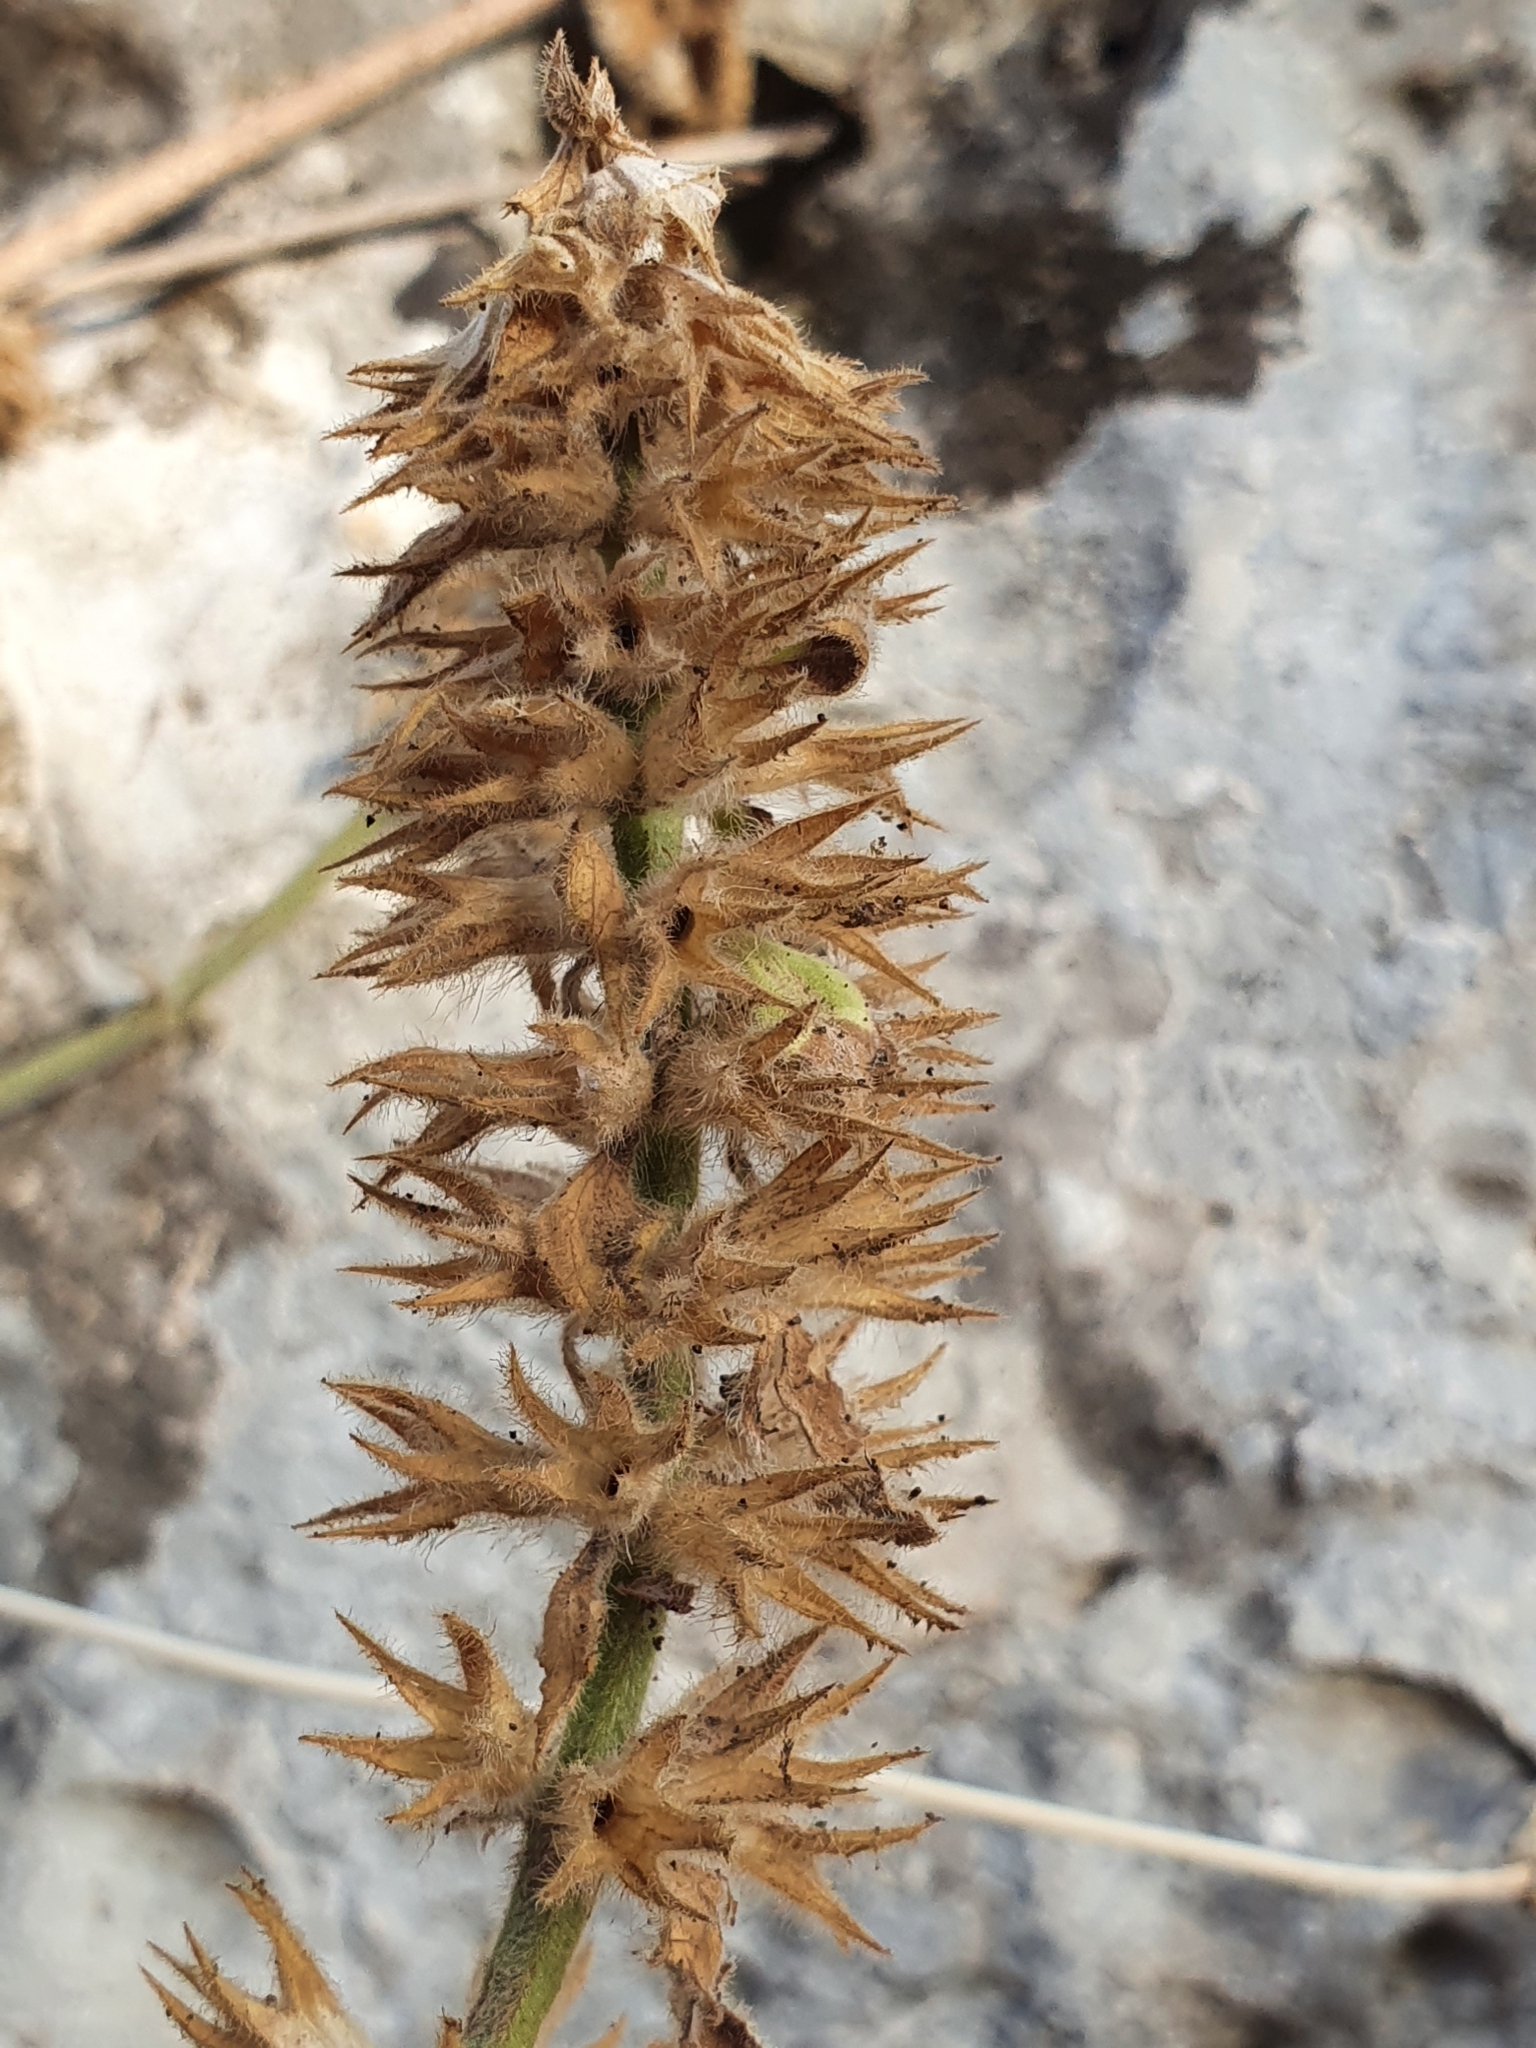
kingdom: Plantae
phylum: Tracheophyta
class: Magnoliopsida
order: Lamiales
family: Lamiaceae
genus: Stachys
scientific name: Stachys circinata
